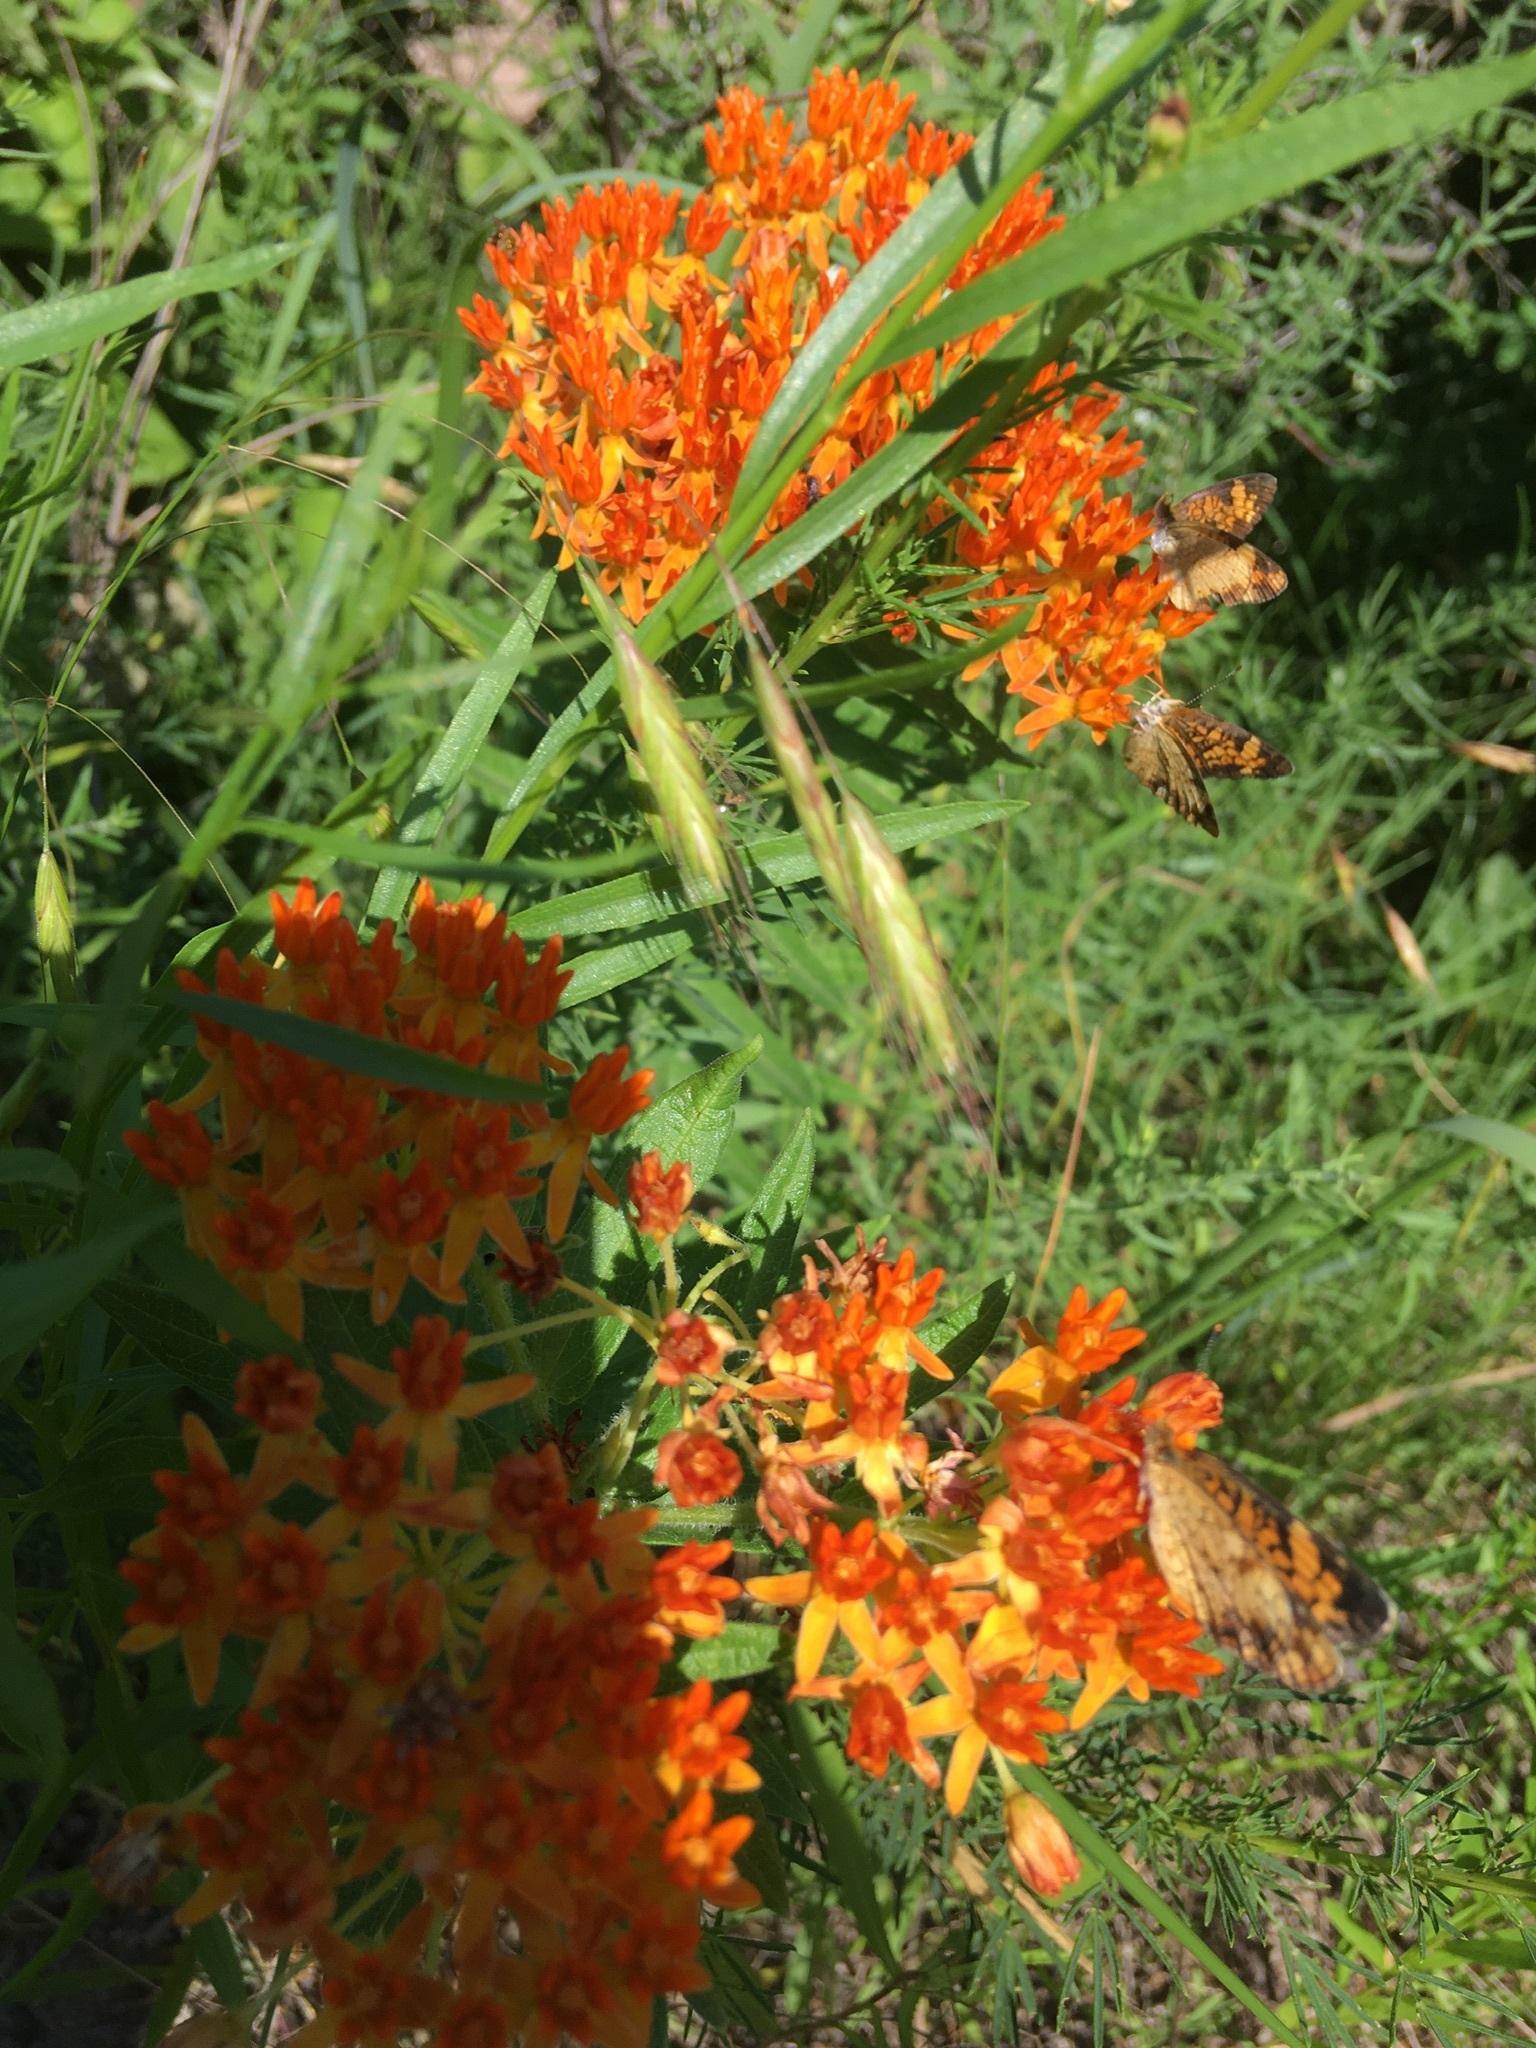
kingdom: Animalia
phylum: Arthropoda
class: Insecta
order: Lepidoptera
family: Nymphalidae
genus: Phyciodes
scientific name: Phyciodes tharos
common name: Pearl crescent
